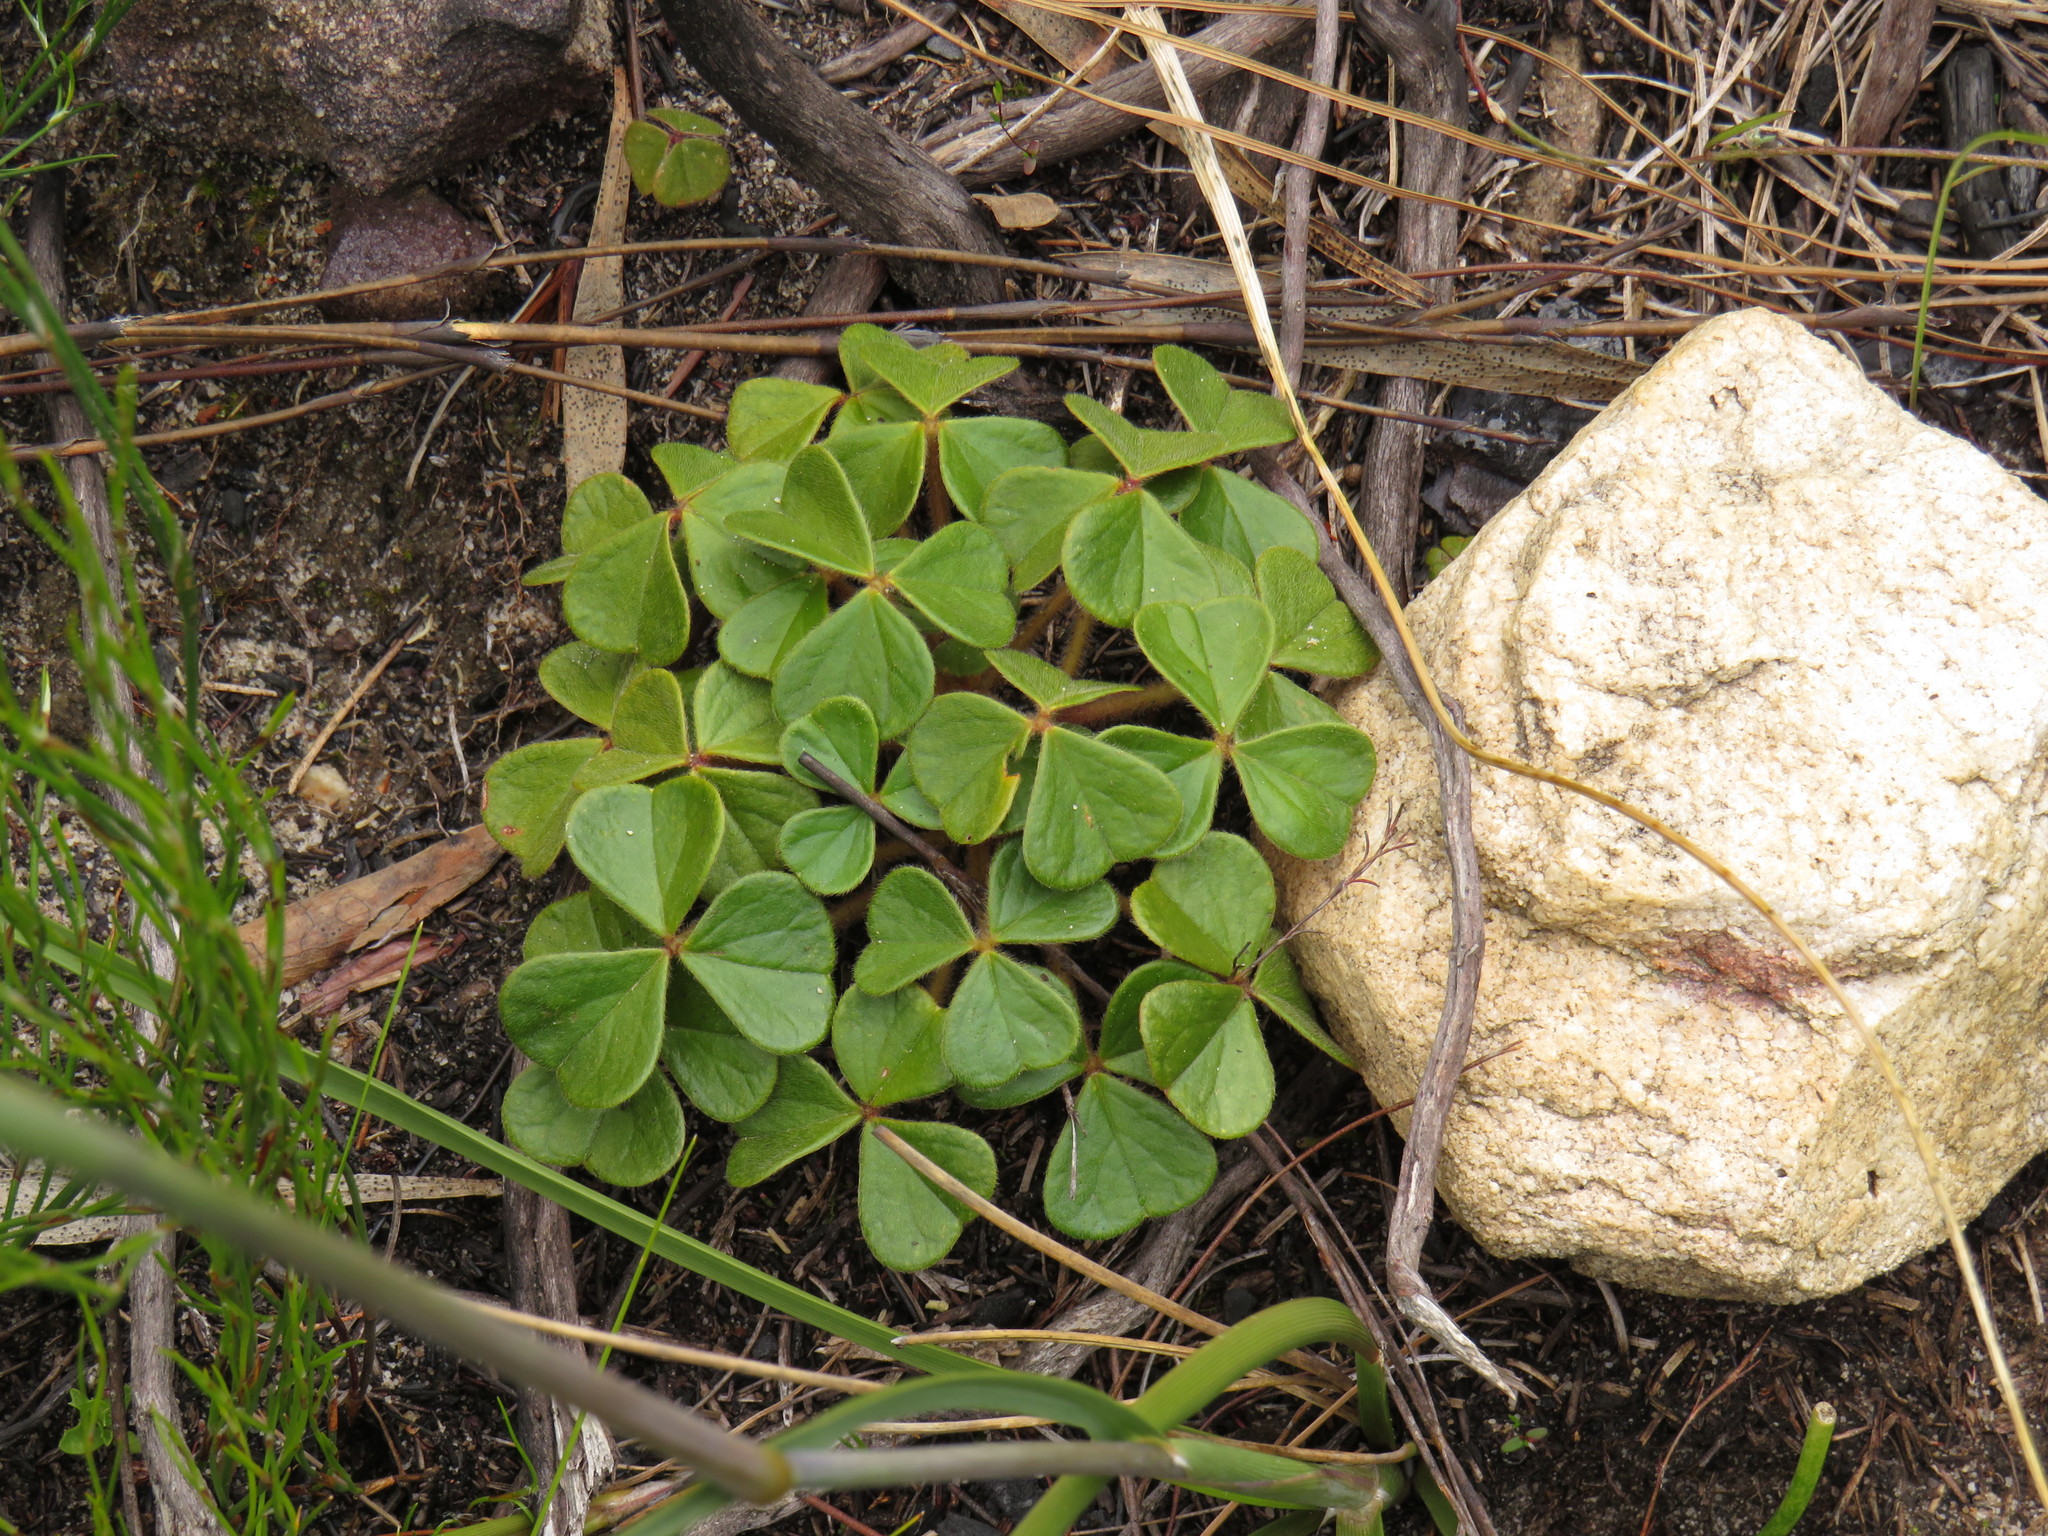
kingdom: Plantae
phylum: Tracheophyta
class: Magnoliopsida
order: Oxalidales
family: Oxalidaceae
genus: Oxalis
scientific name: Oxalis truncatula
